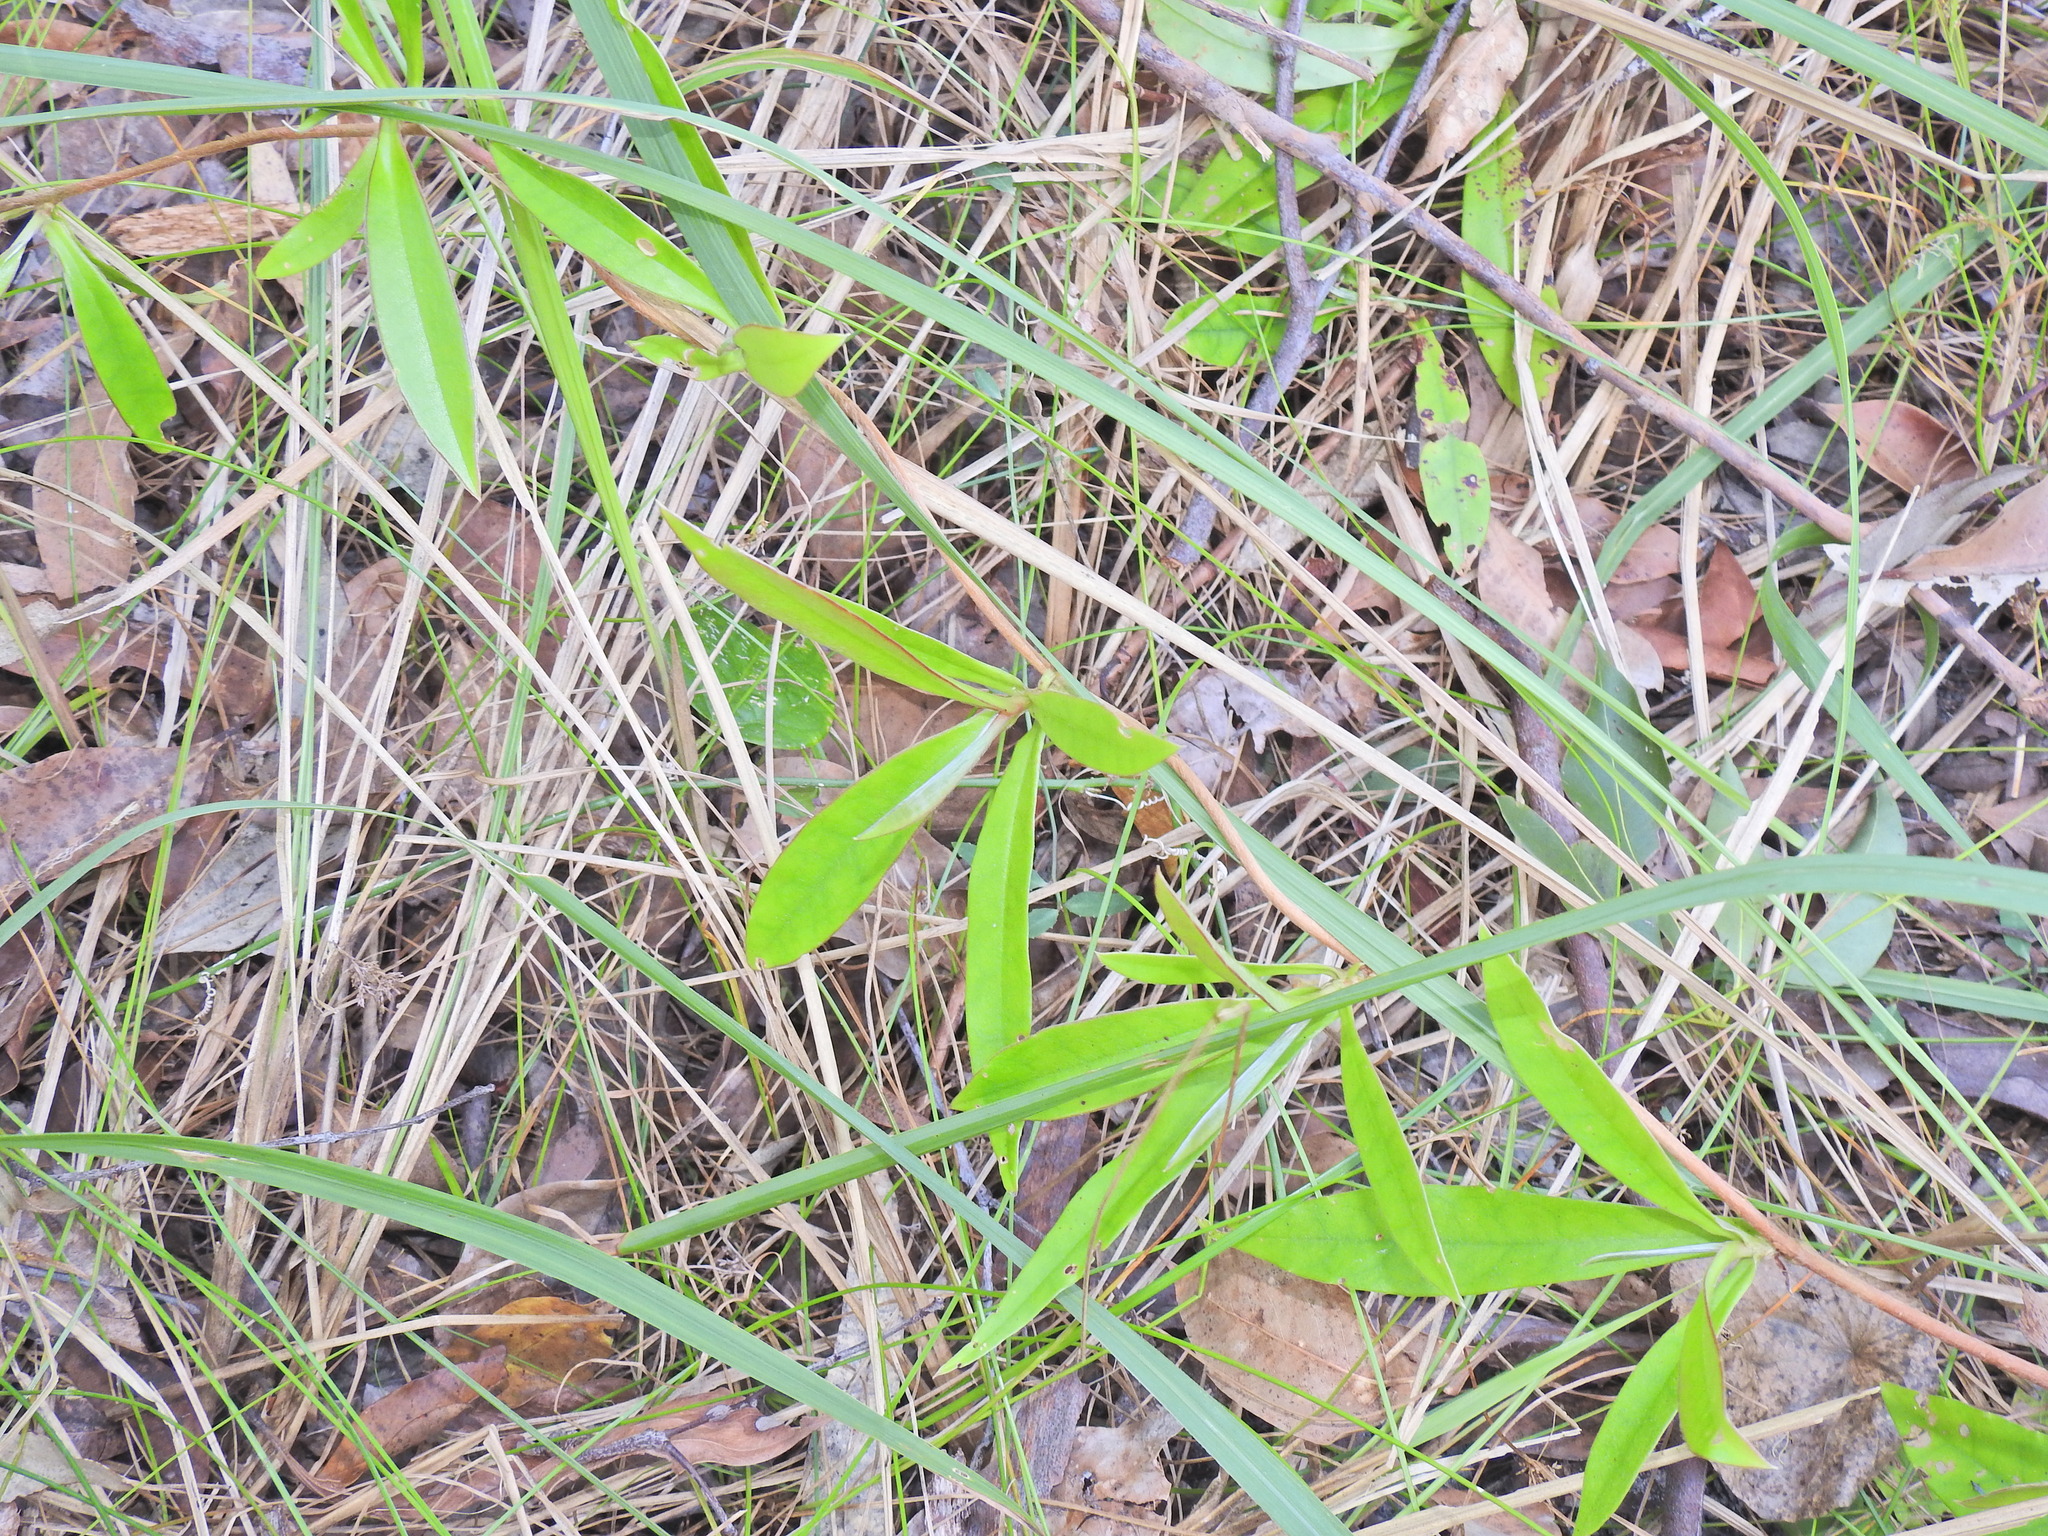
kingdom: Plantae
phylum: Tracheophyta
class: Magnoliopsida
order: Dilleniales
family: Dilleniaceae
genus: Hibbertia
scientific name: Hibbertia scandens
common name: Climbing guinea-flower
